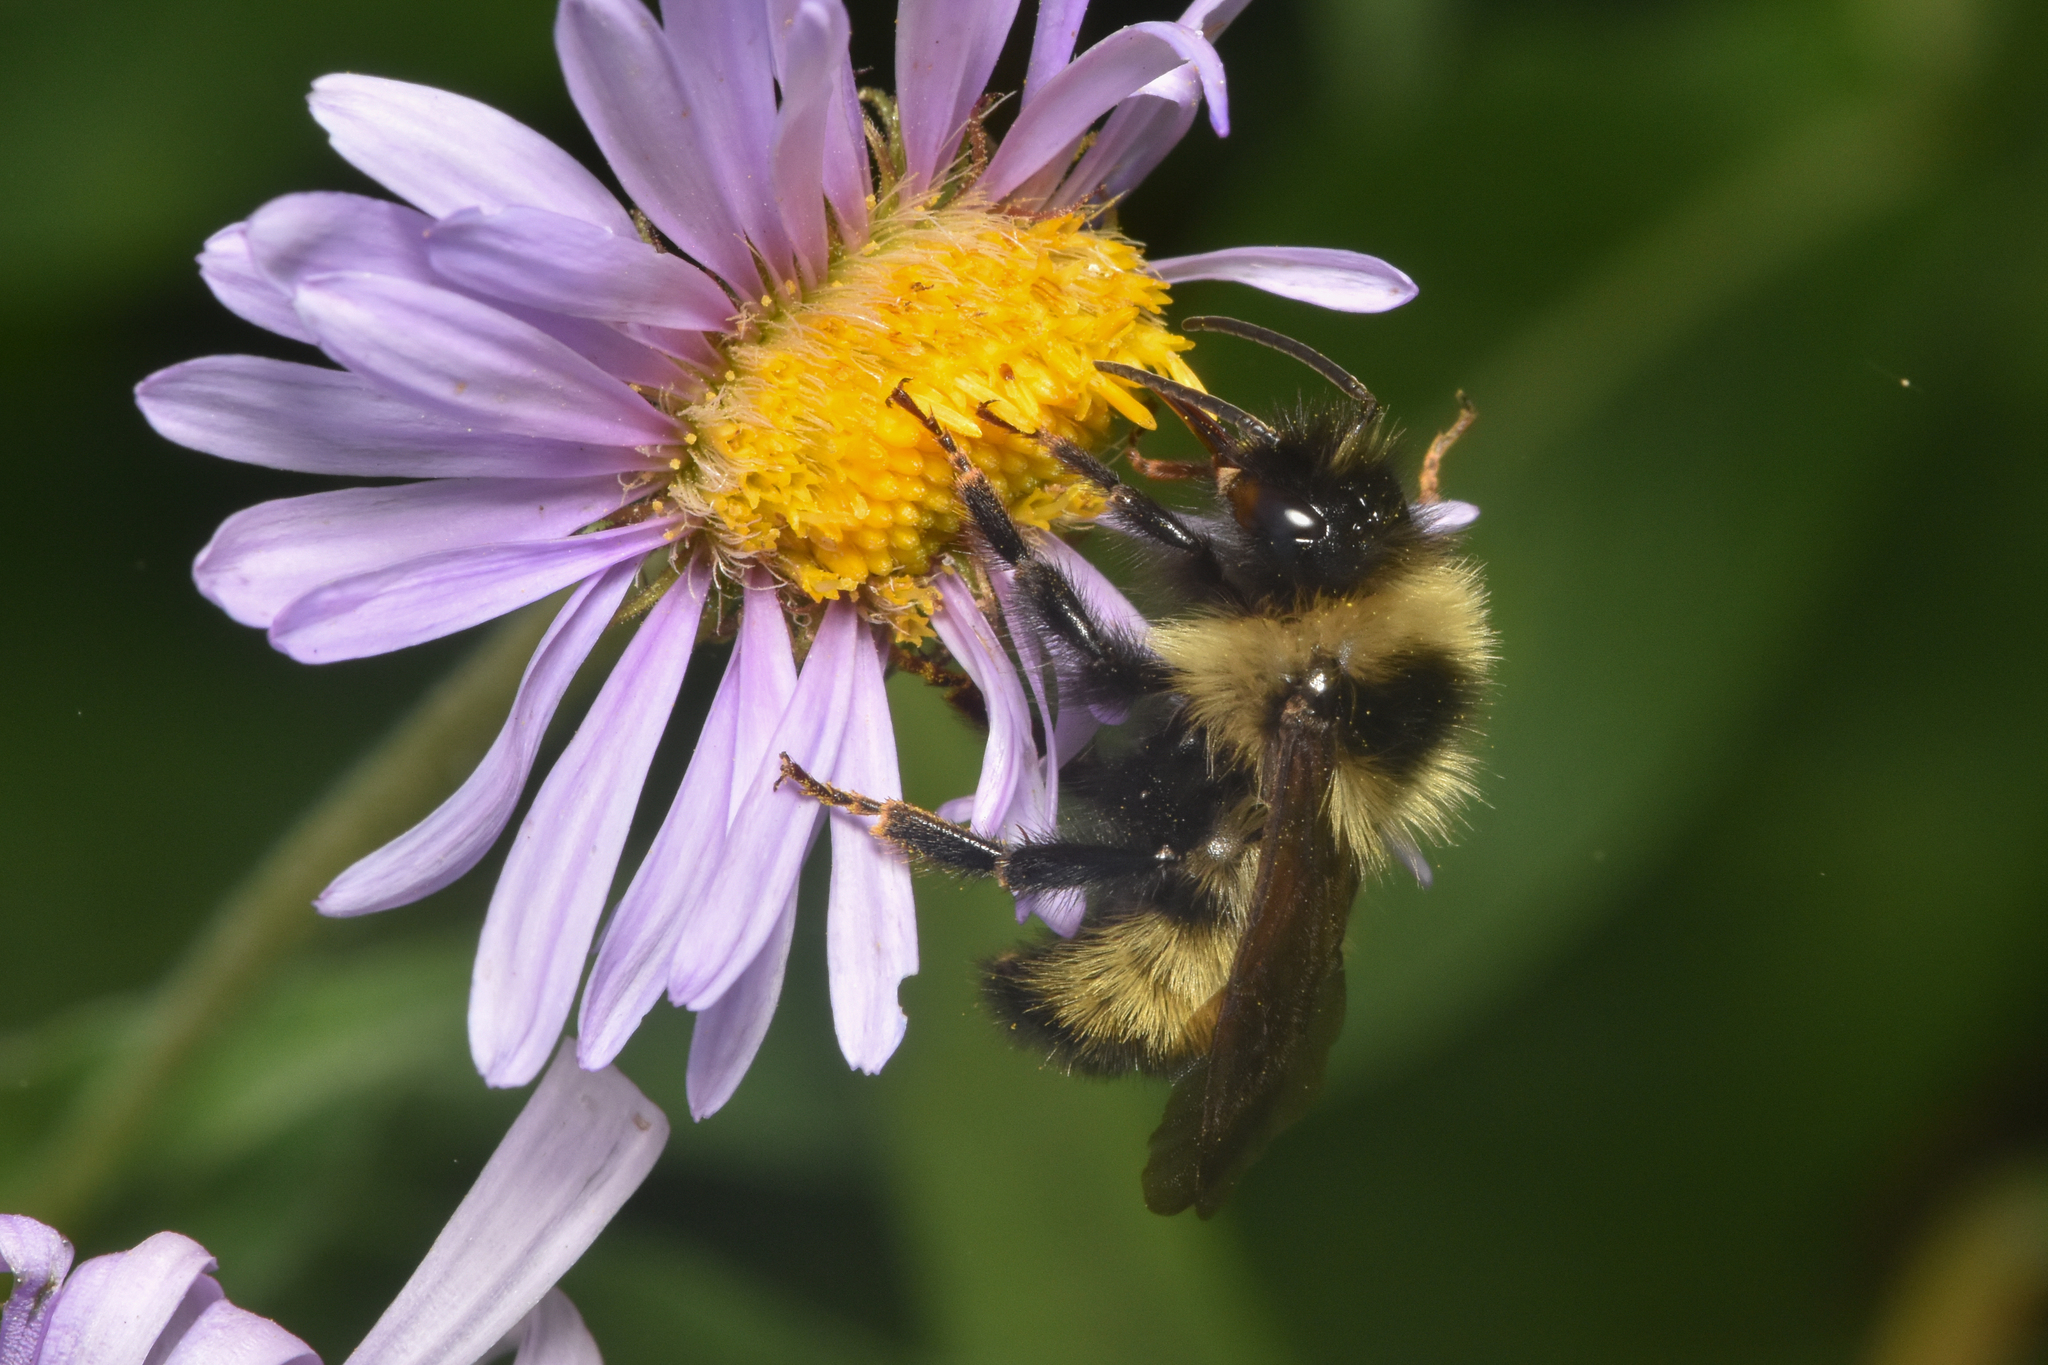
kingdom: Animalia
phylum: Arthropoda
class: Insecta
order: Hymenoptera
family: Apidae
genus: Bombus
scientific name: Bombus insularis
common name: Indiscriminate cuckoo bumble bee
